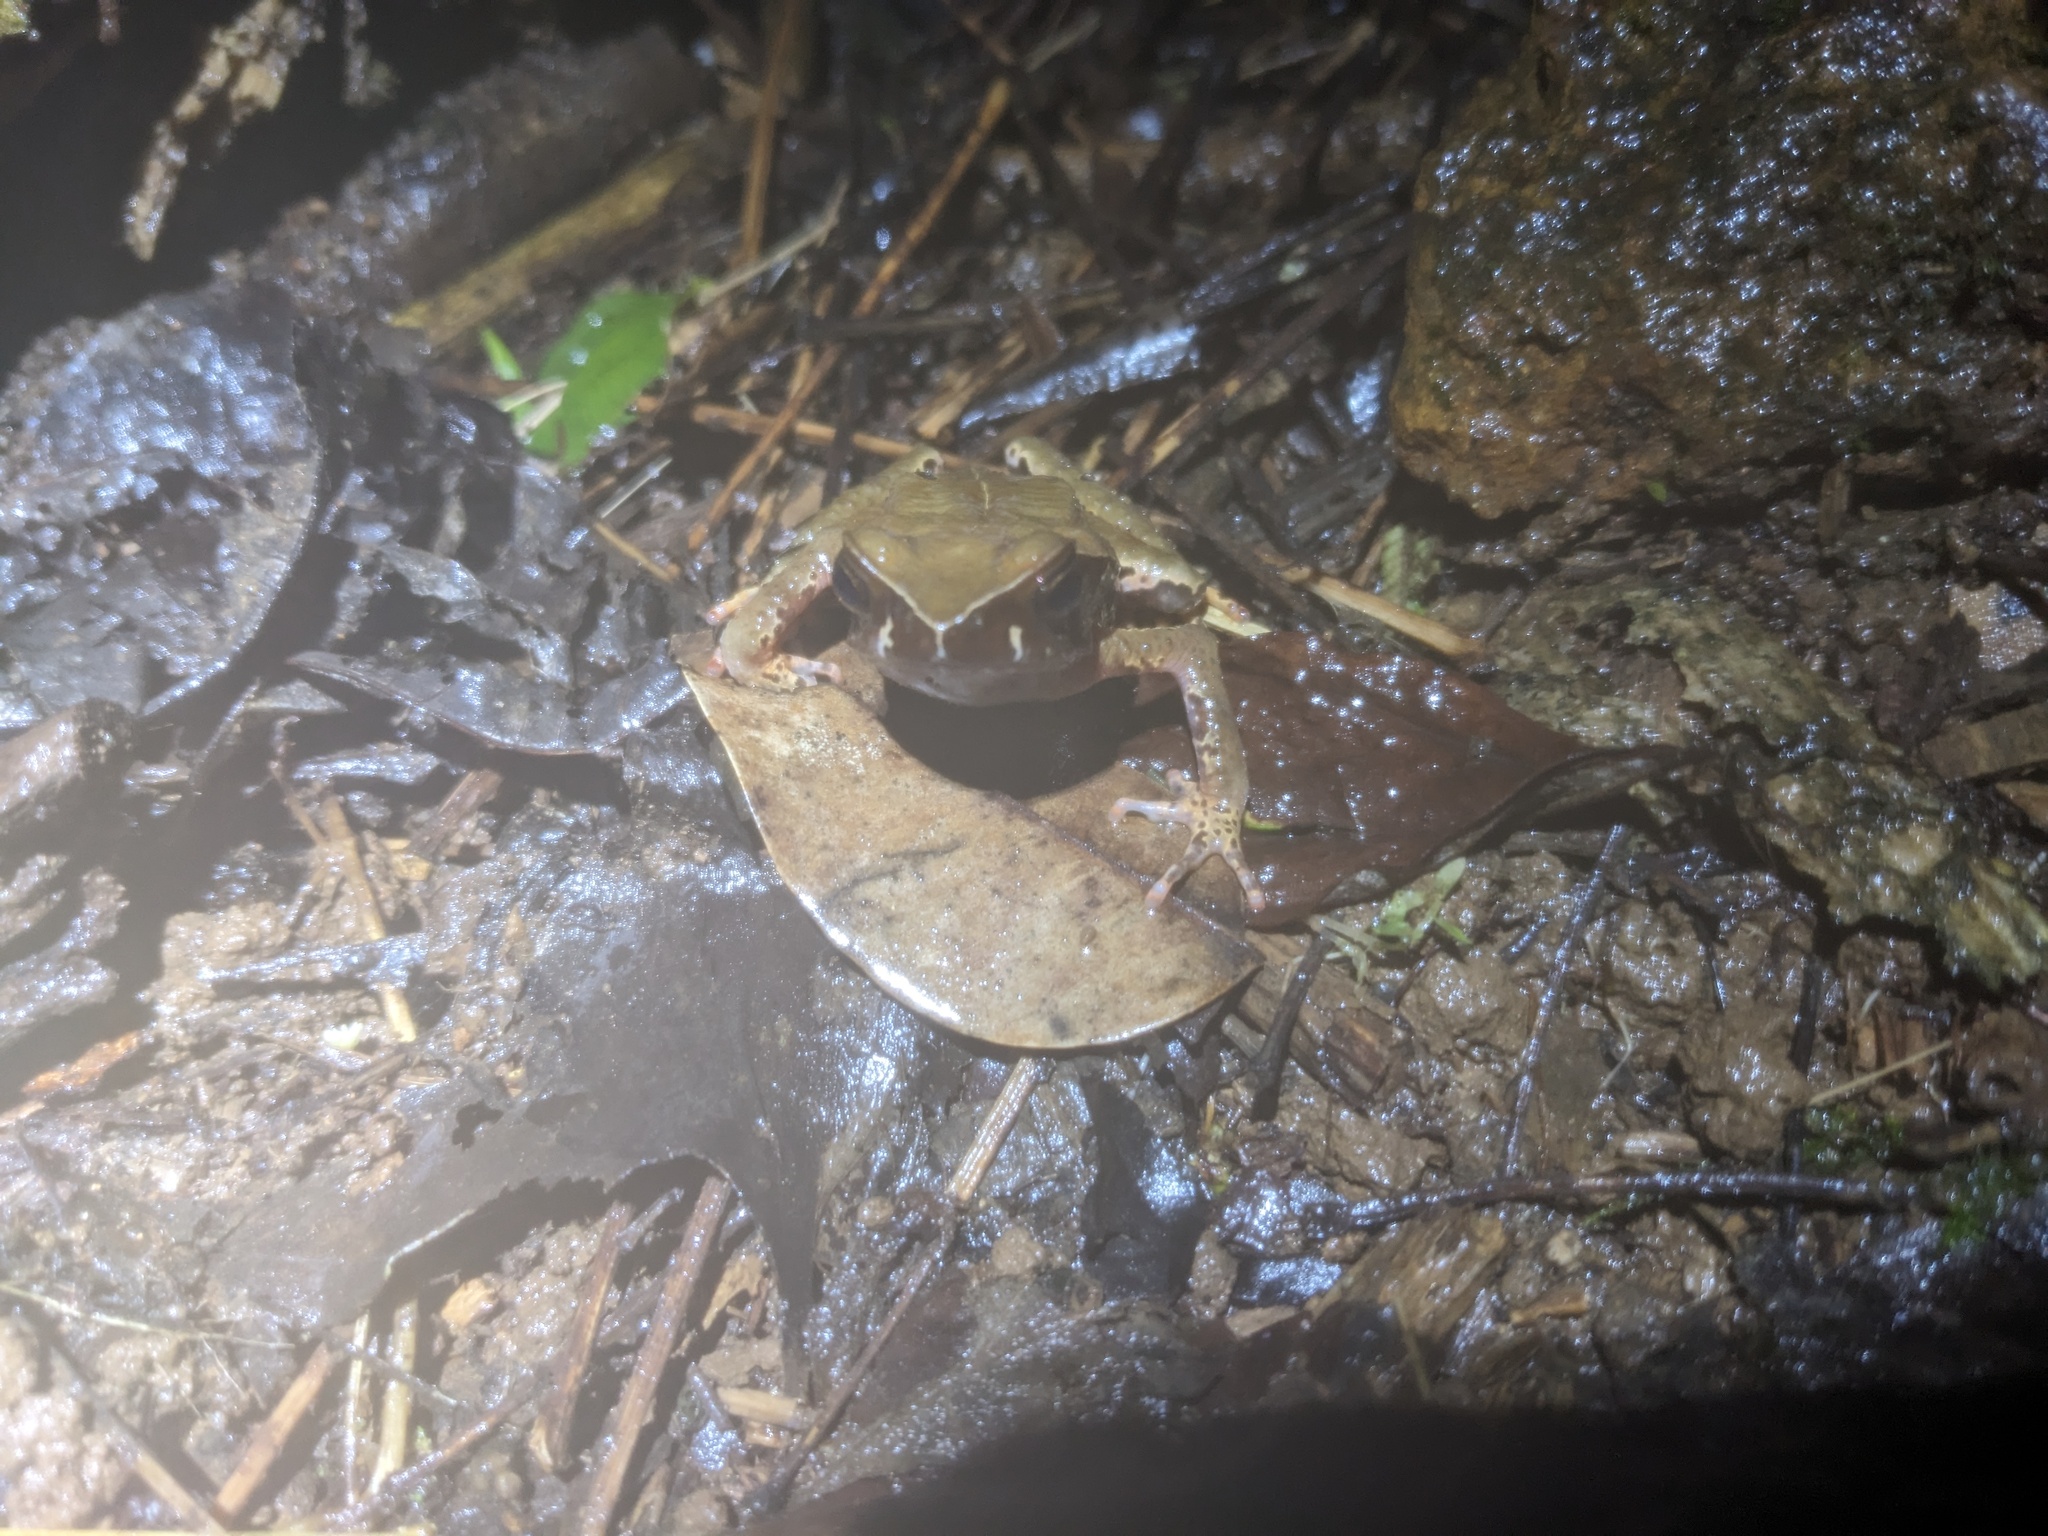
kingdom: Animalia
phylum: Chordata
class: Amphibia
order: Anura
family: Bufonidae
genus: Rhaebo
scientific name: Rhaebo haematiticus
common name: Truando toad
